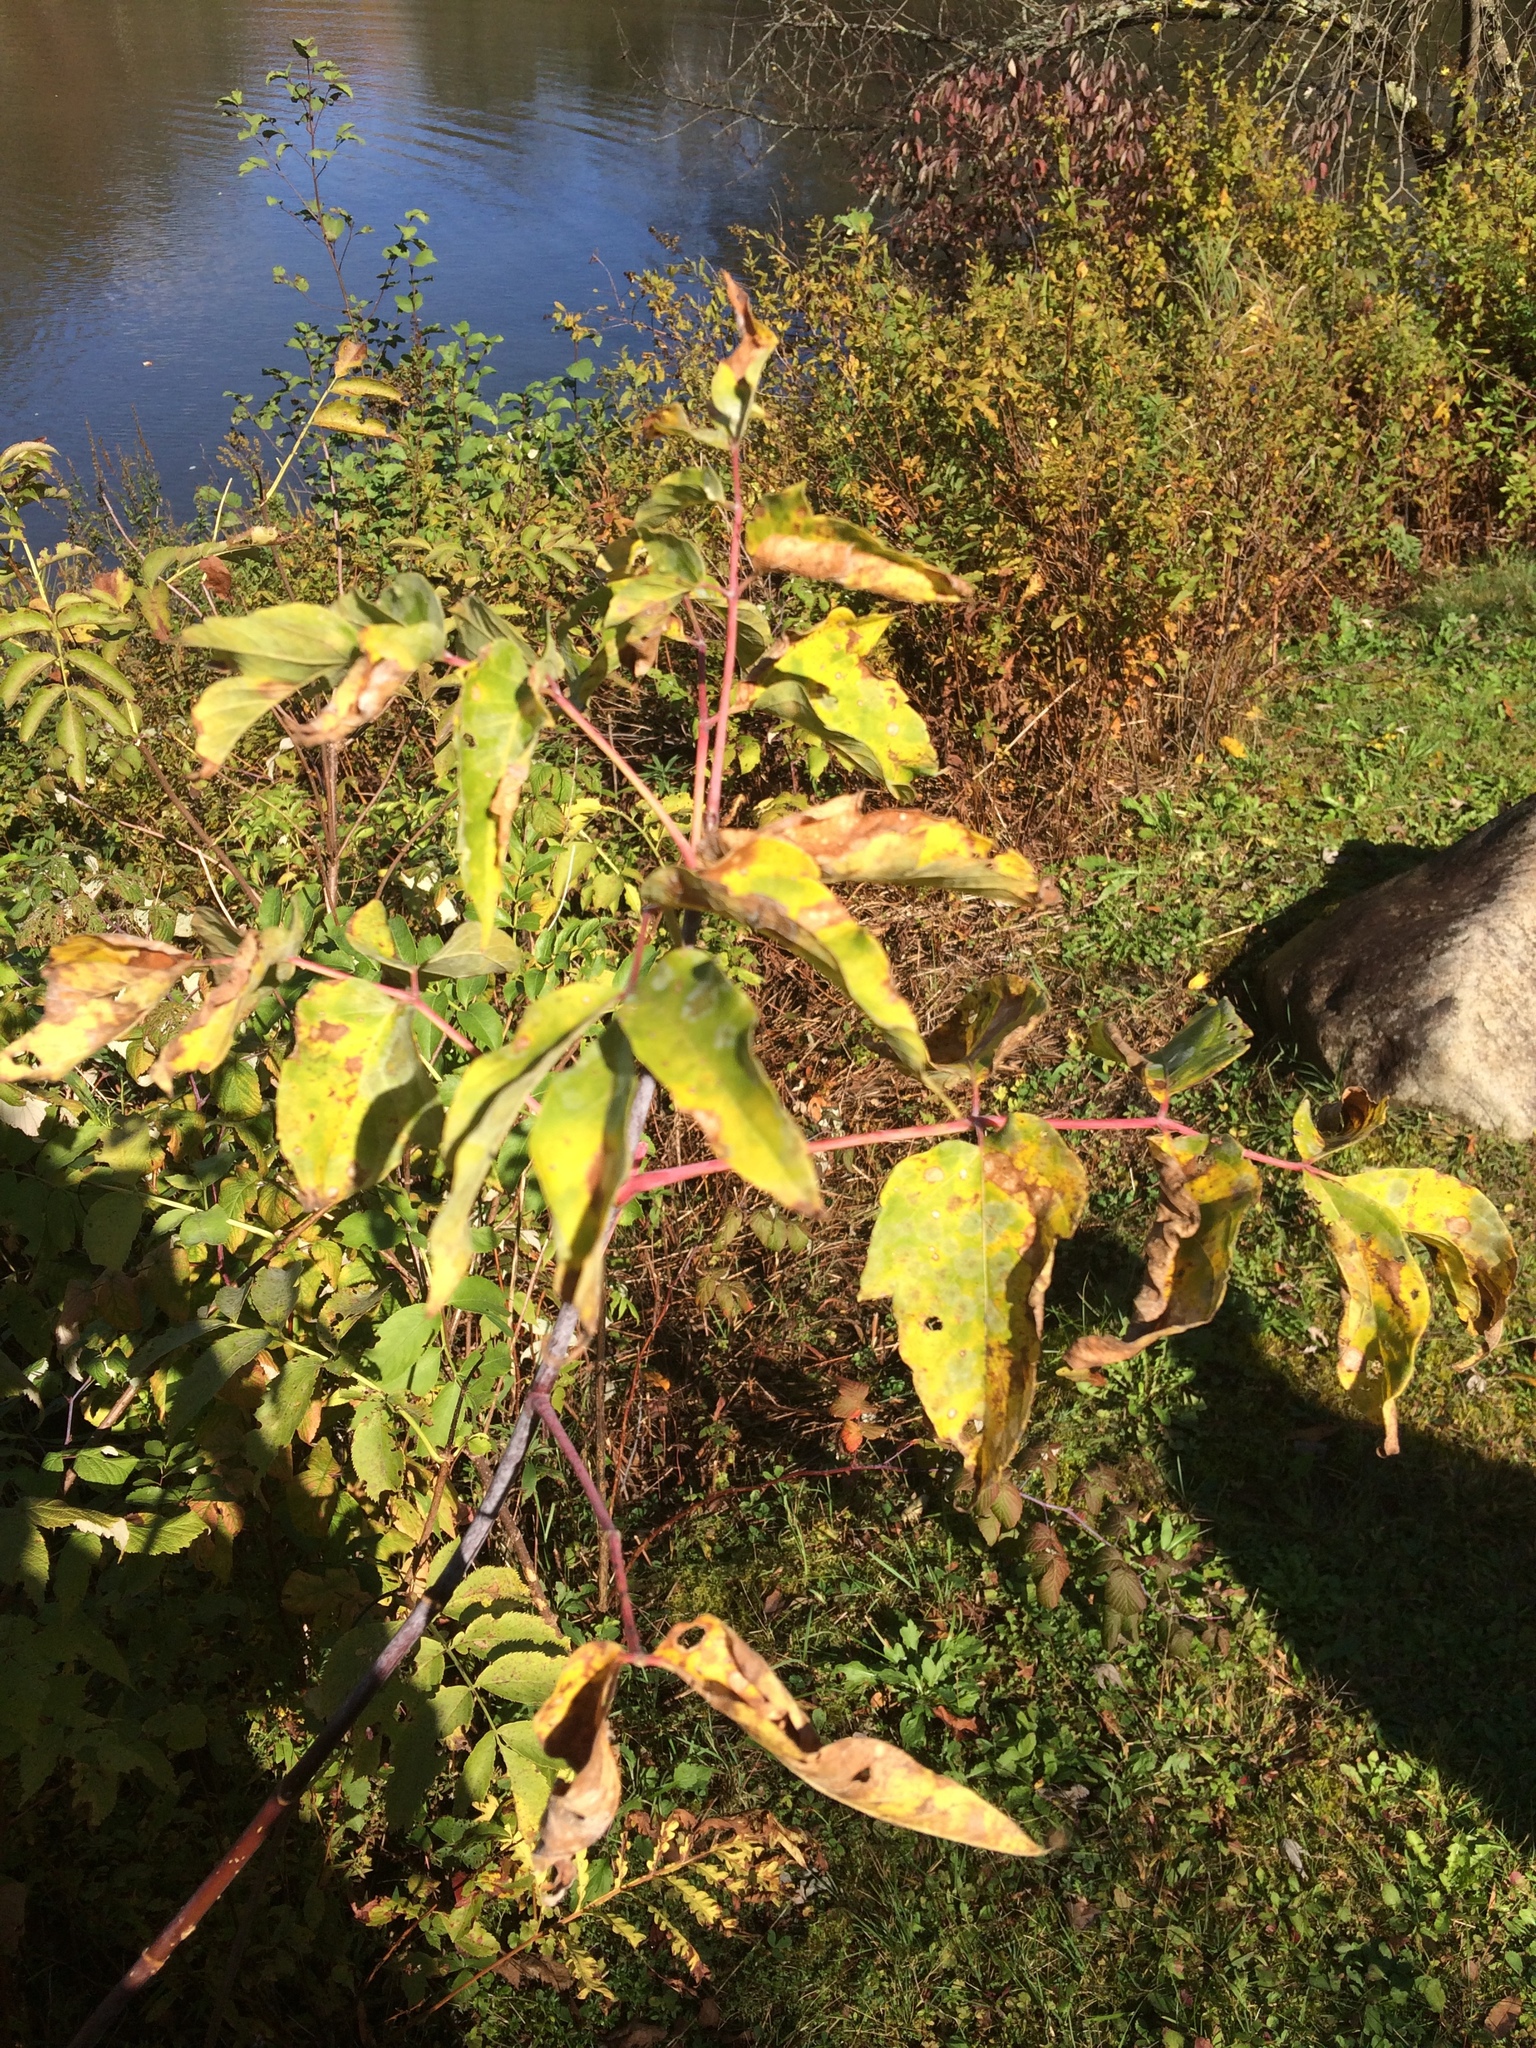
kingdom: Plantae
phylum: Tracheophyta
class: Magnoliopsida
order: Sapindales
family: Sapindaceae
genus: Acer
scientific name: Acer negundo
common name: Ashleaf maple
